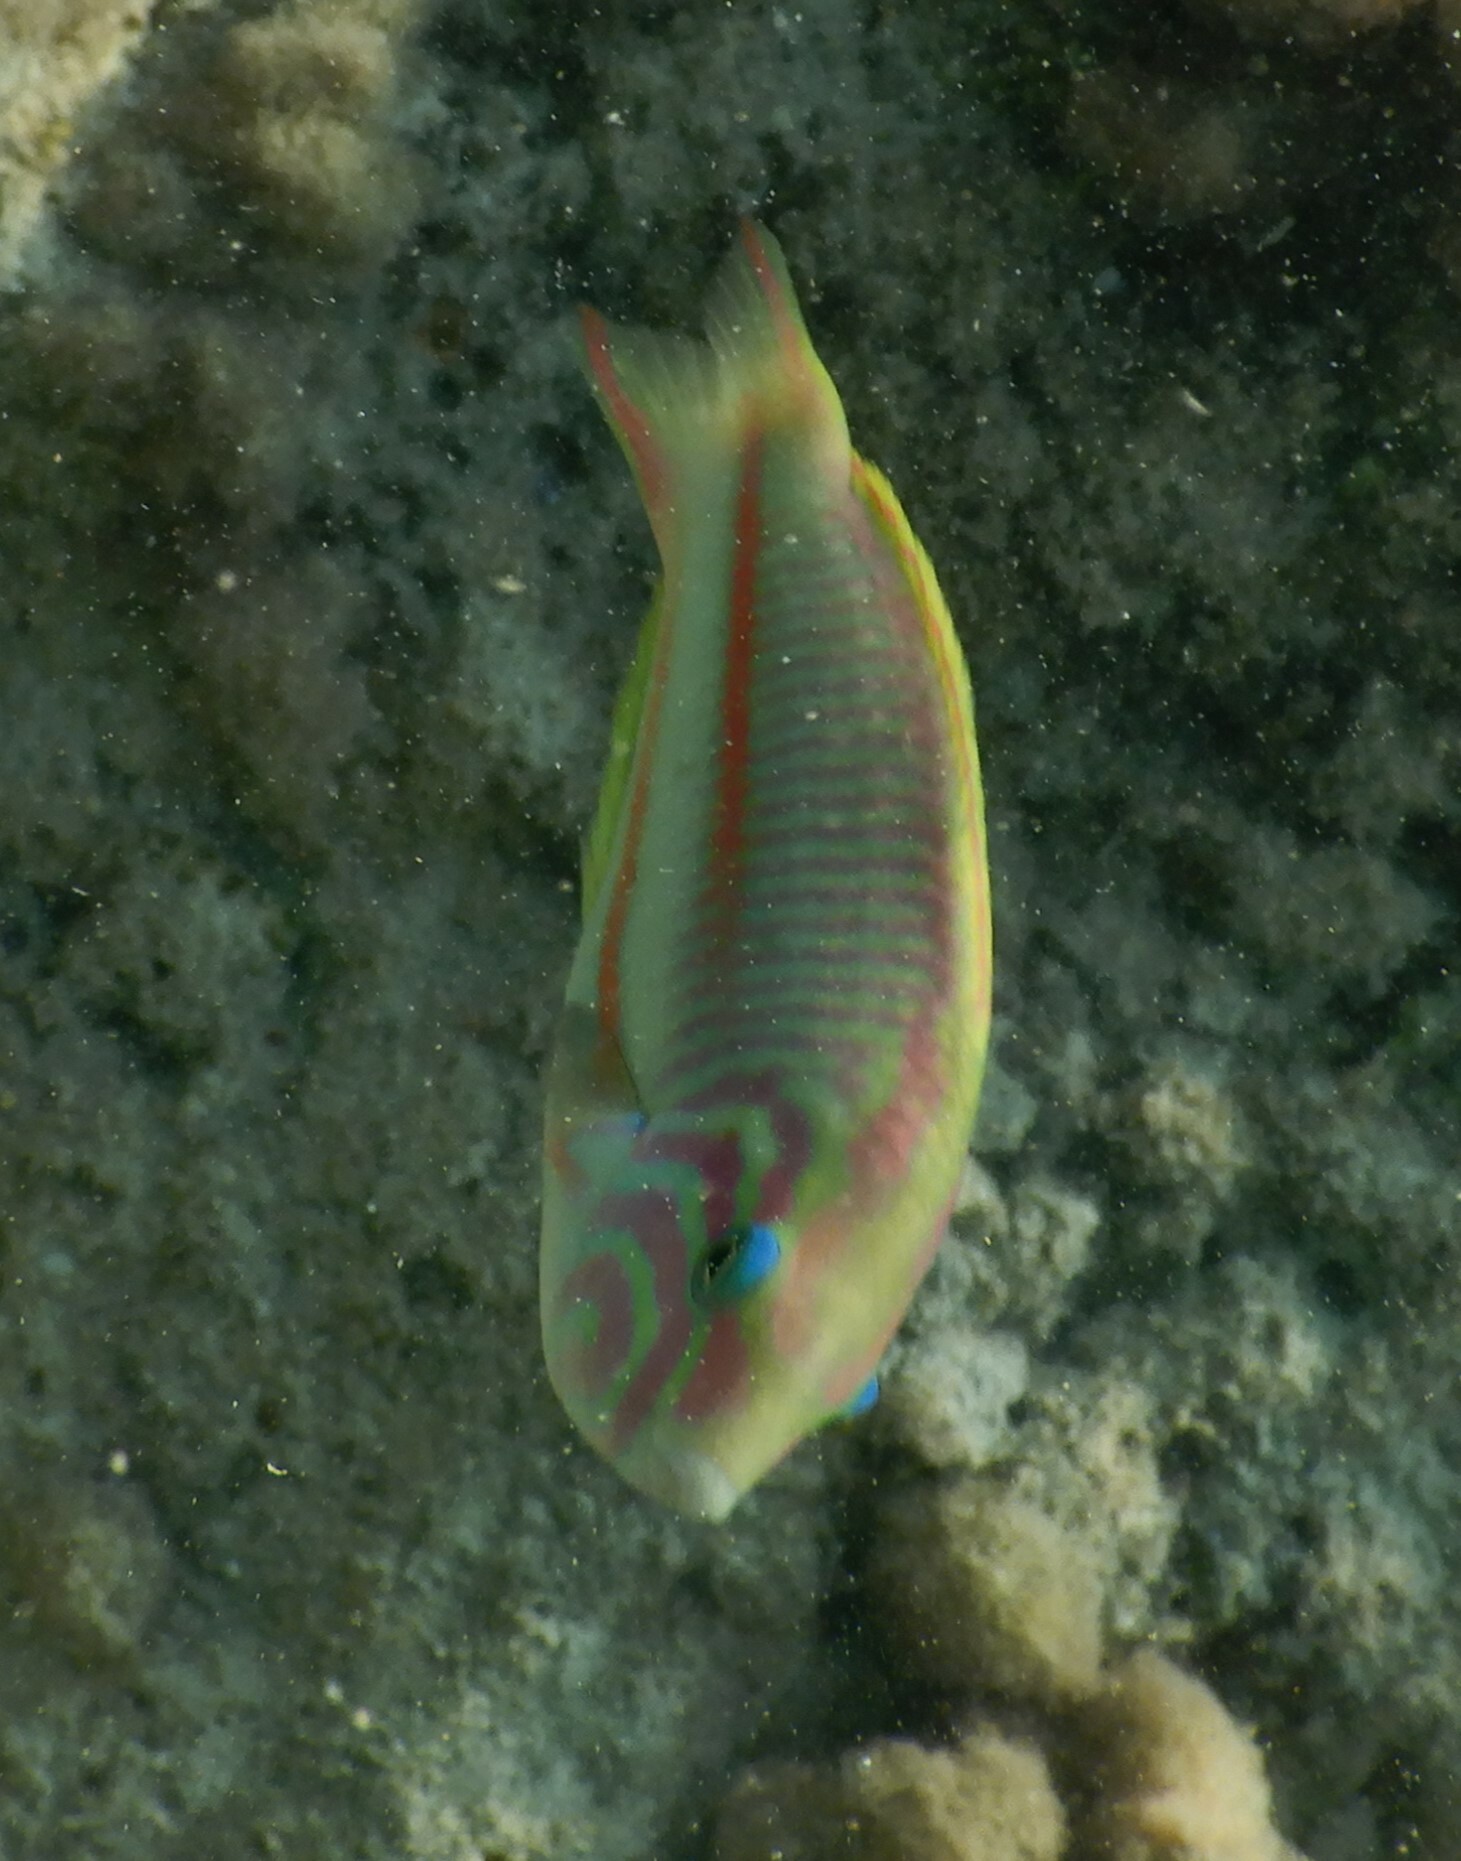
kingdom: Animalia
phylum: Chordata
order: Perciformes
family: Labridae
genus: Thalassoma
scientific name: Thalassoma rueppellii
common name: Klunzinger's wrasse
